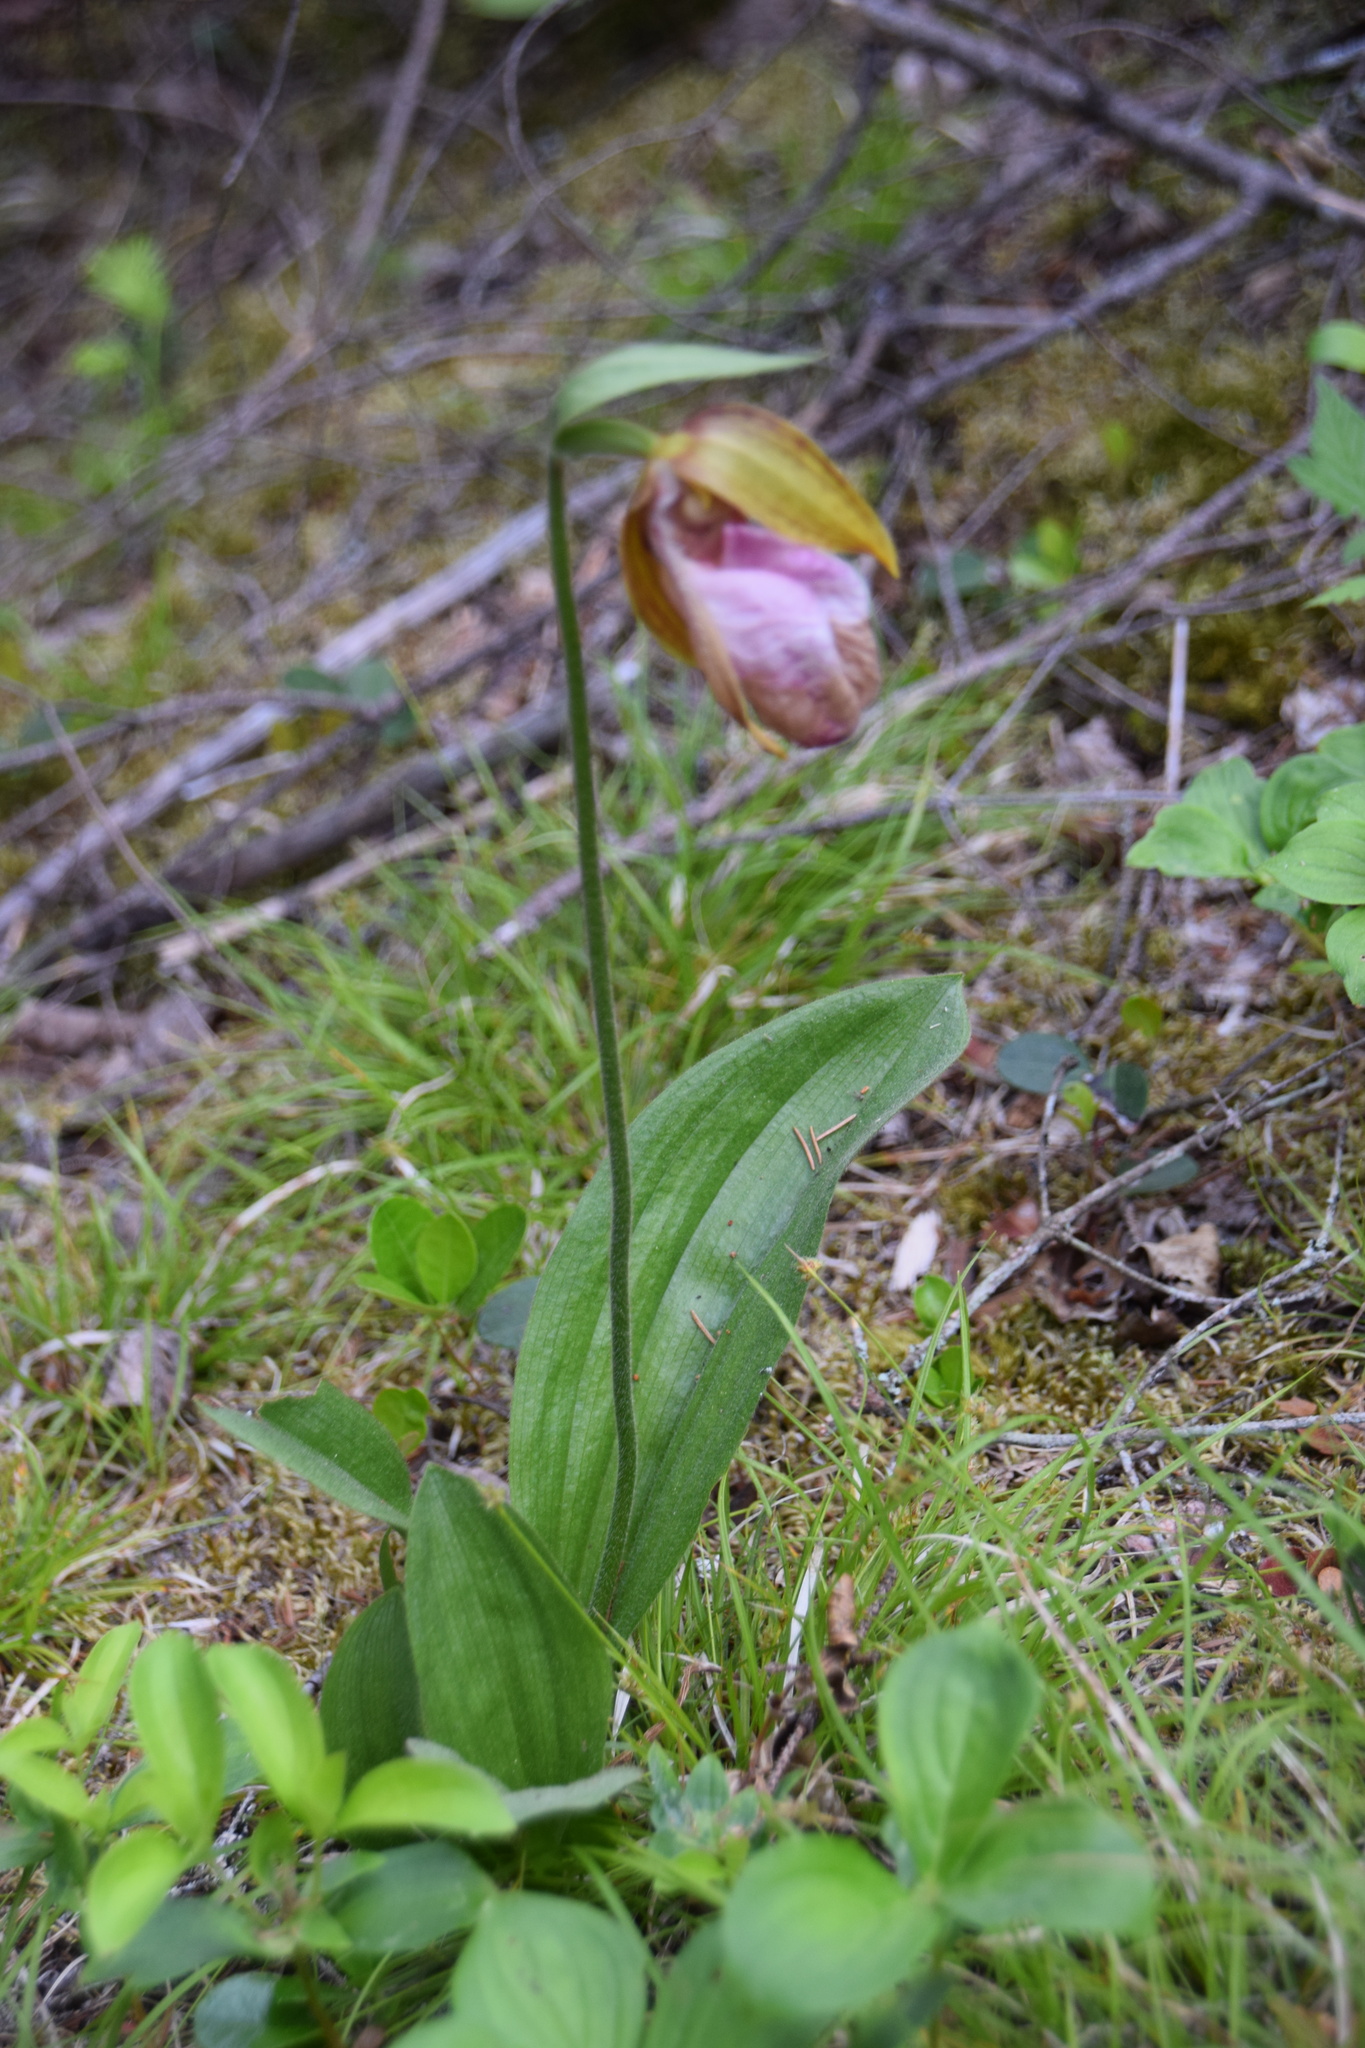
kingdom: Plantae
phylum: Tracheophyta
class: Liliopsida
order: Asparagales
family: Orchidaceae
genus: Cypripedium
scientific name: Cypripedium acaule
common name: Pink lady's-slipper
